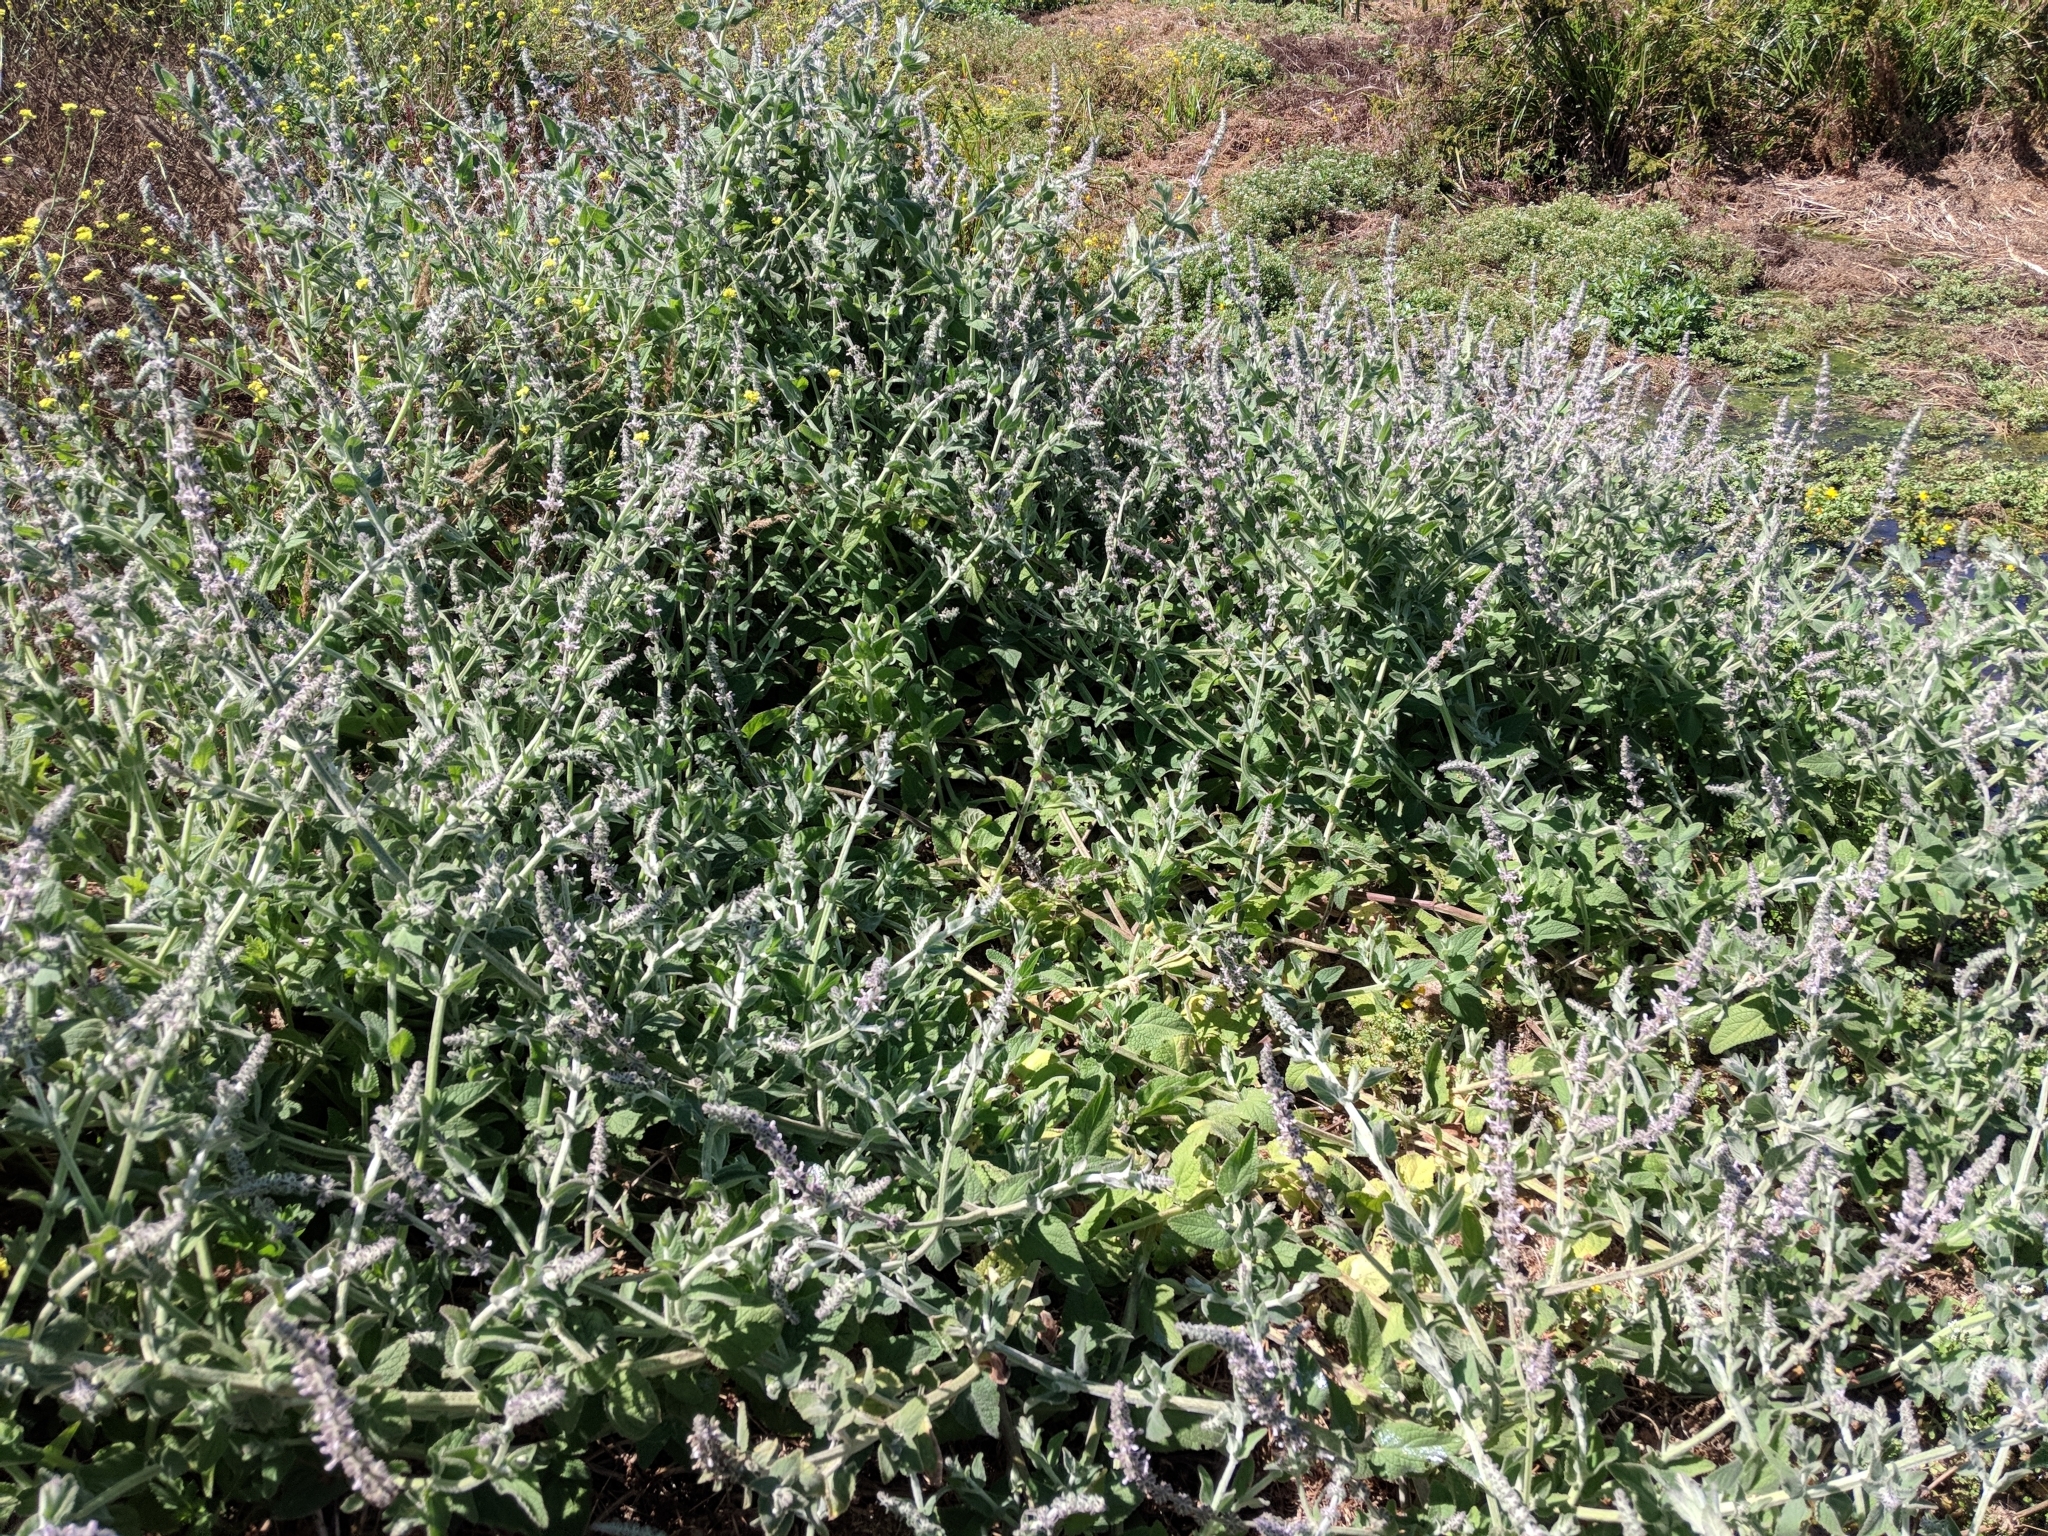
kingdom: Plantae
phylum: Tracheophyta
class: Magnoliopsida
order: Lamiales
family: Lamiaceae
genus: Stachys
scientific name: Stachys albens
